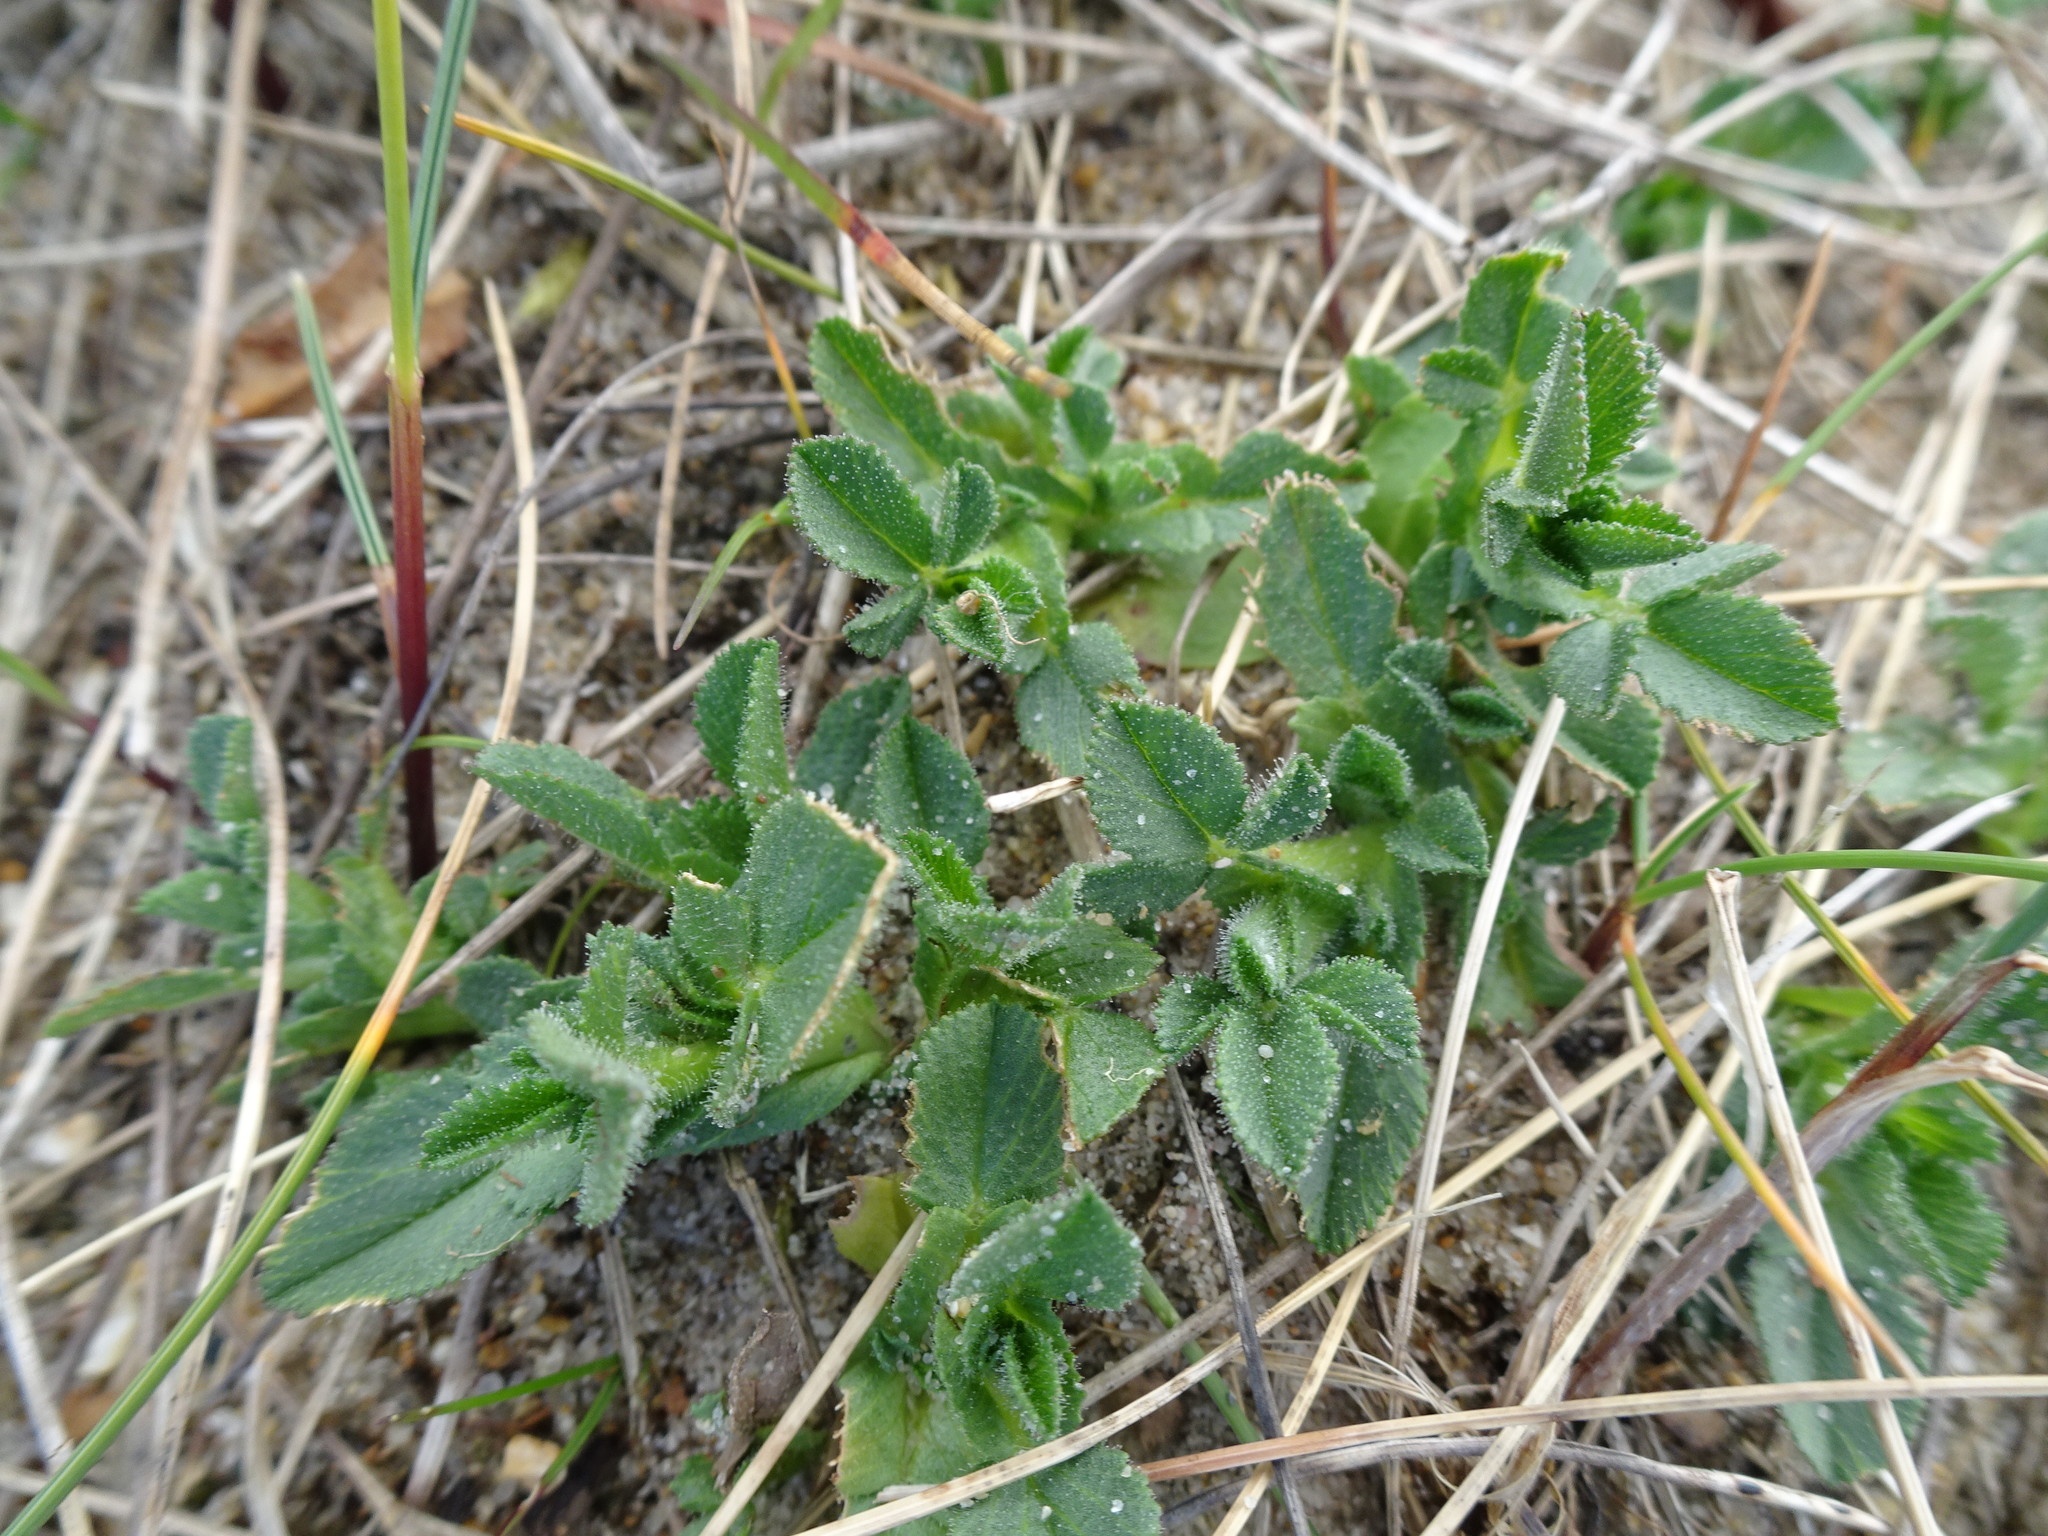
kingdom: Plantae
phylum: Tracheophyta
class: Magnoliopsida
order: Fabales
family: Fabaceae
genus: Ononis
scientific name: Ononis spinosa
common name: Spiny restharrow
